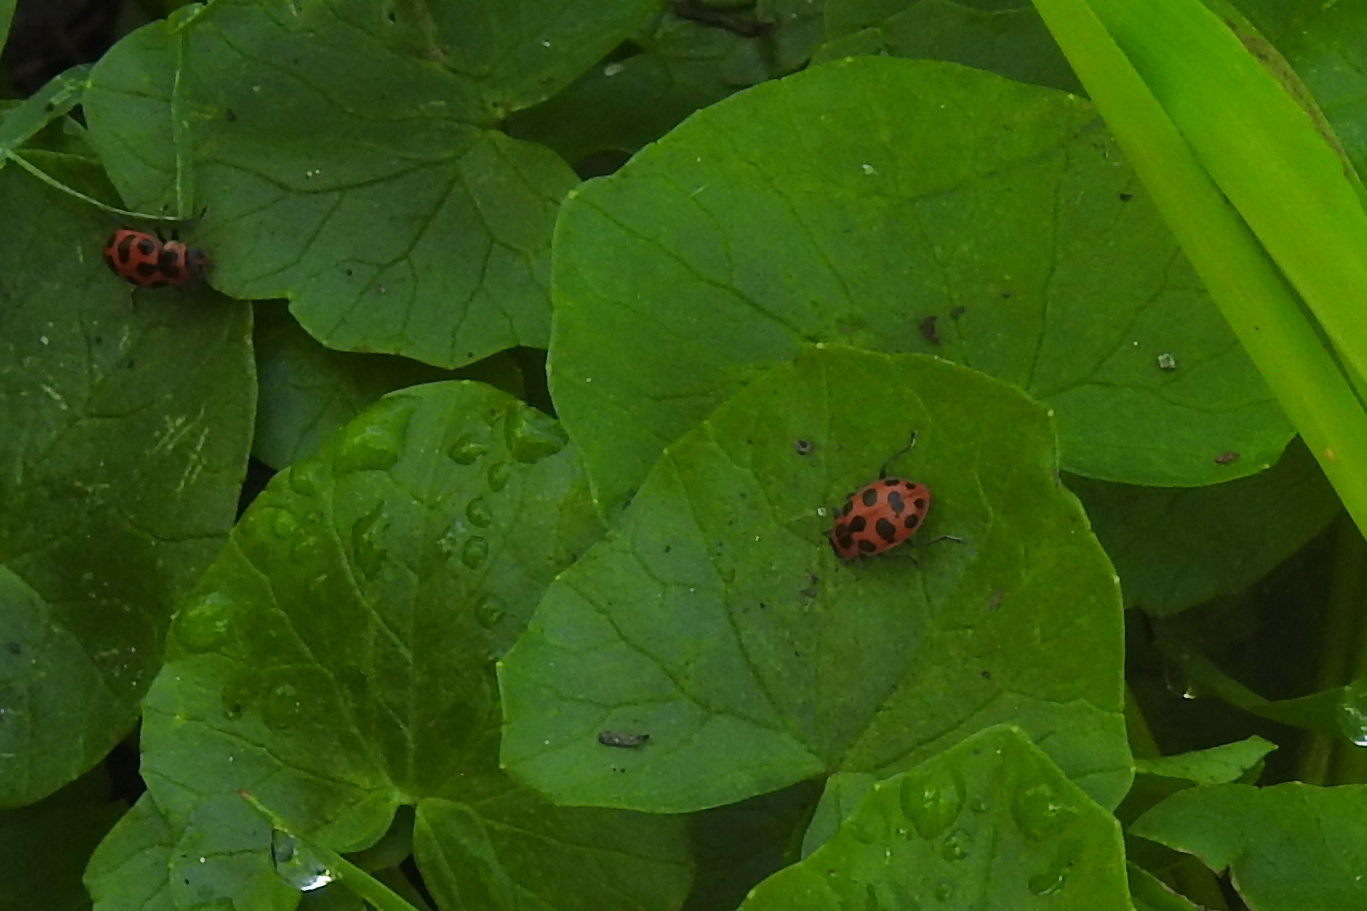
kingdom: Animalia
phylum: Arthropoda
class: Insecta
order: Coleoptera
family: Coccinellidae
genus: Coleomegilla
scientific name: Coleomegilla maculata
